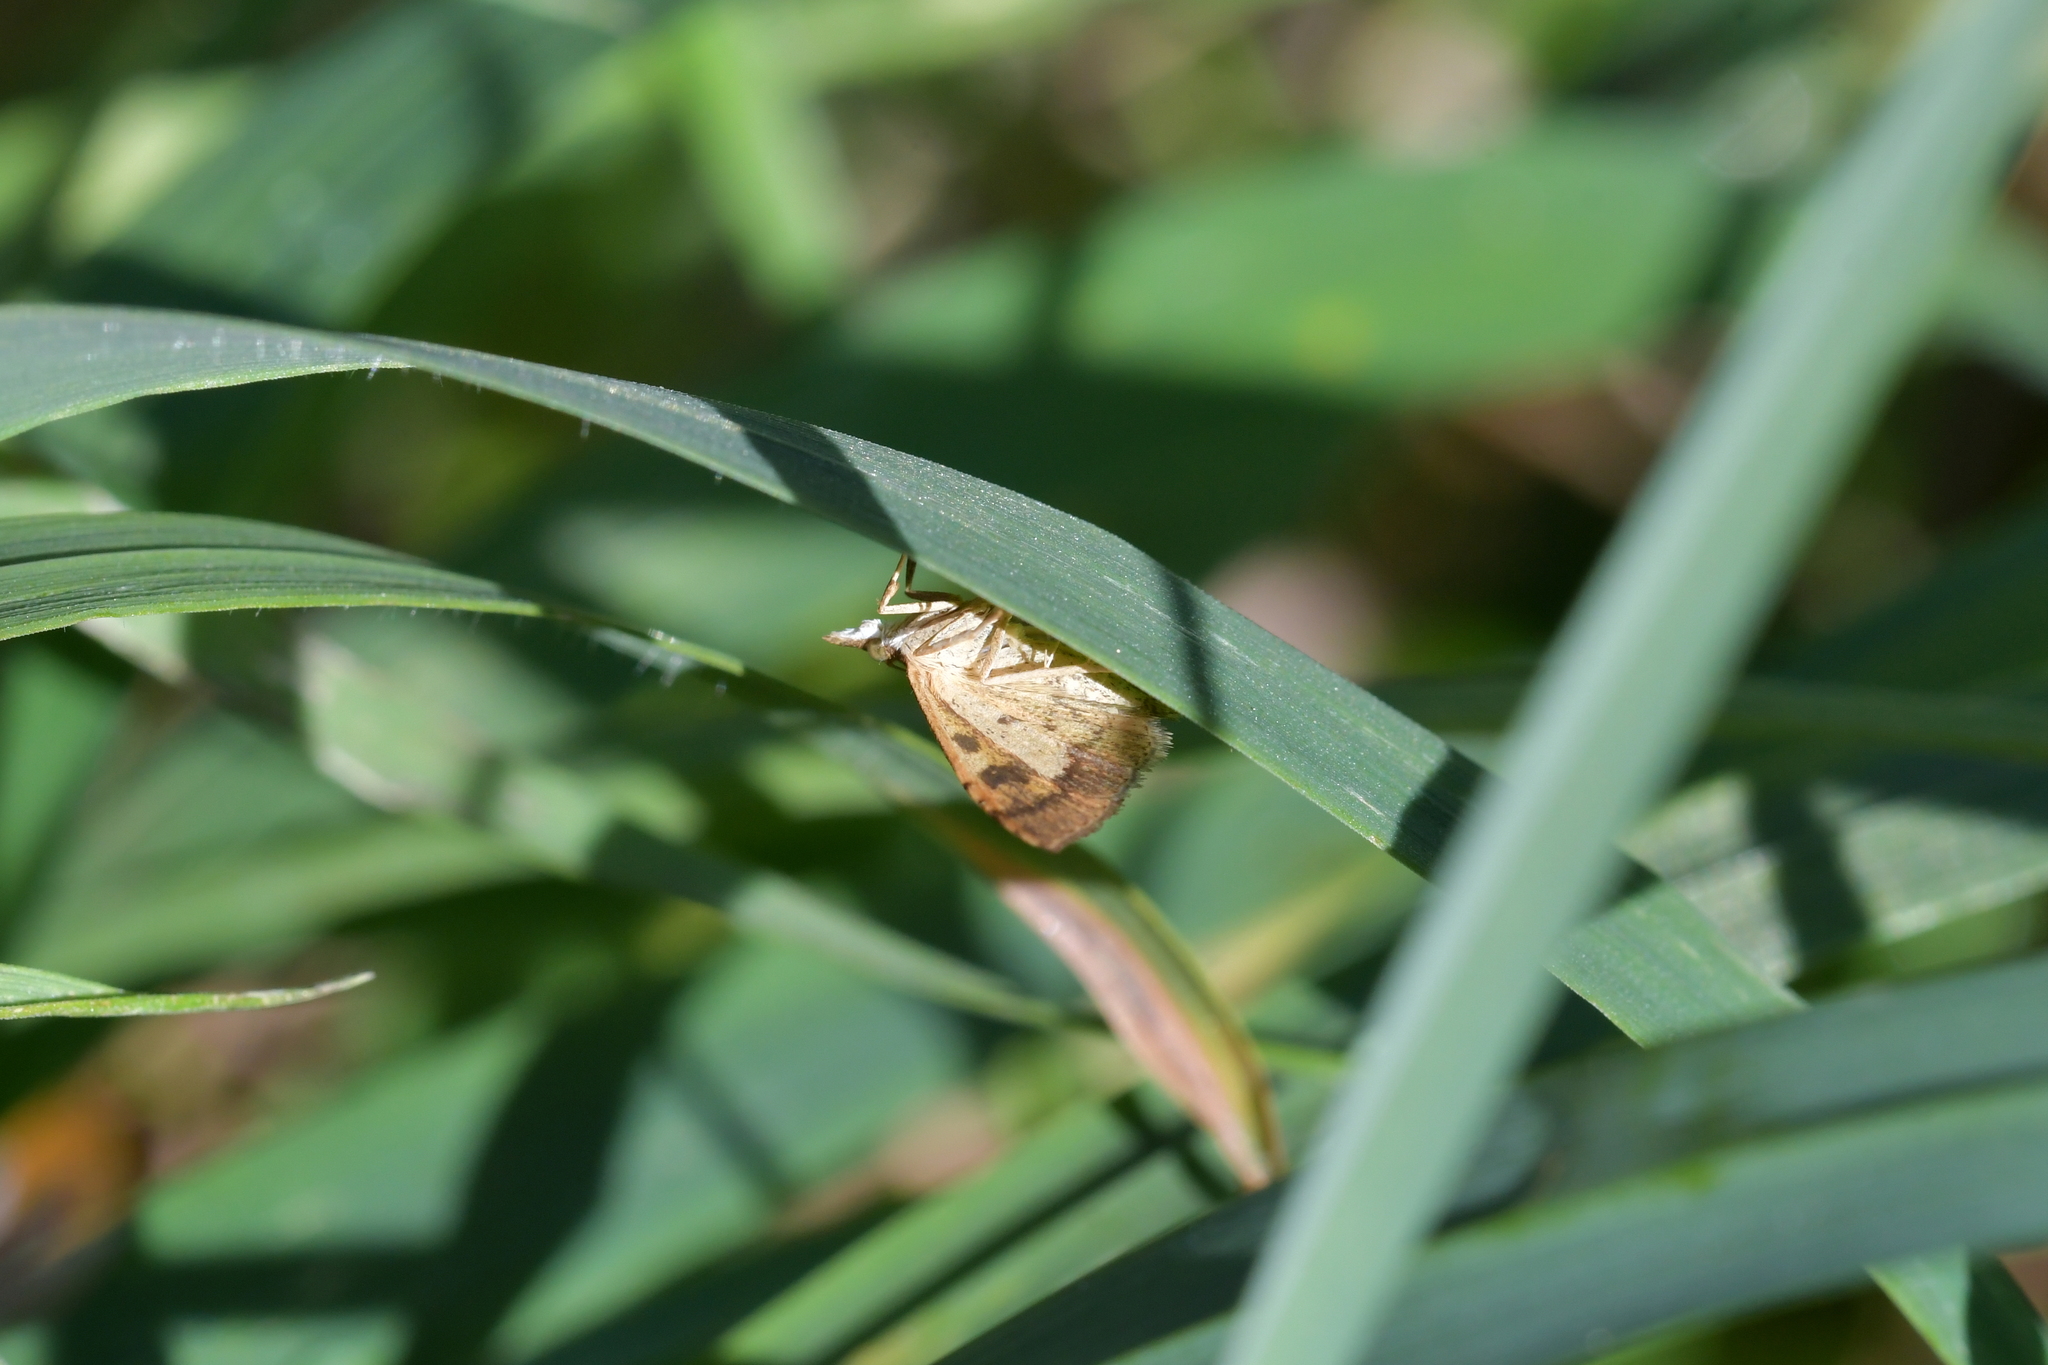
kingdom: Animalia
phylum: Arthropoda
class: Insecta
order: Lepidoptera
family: Crambidae
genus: Udea
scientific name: Udea Mnesictena flavidalis
